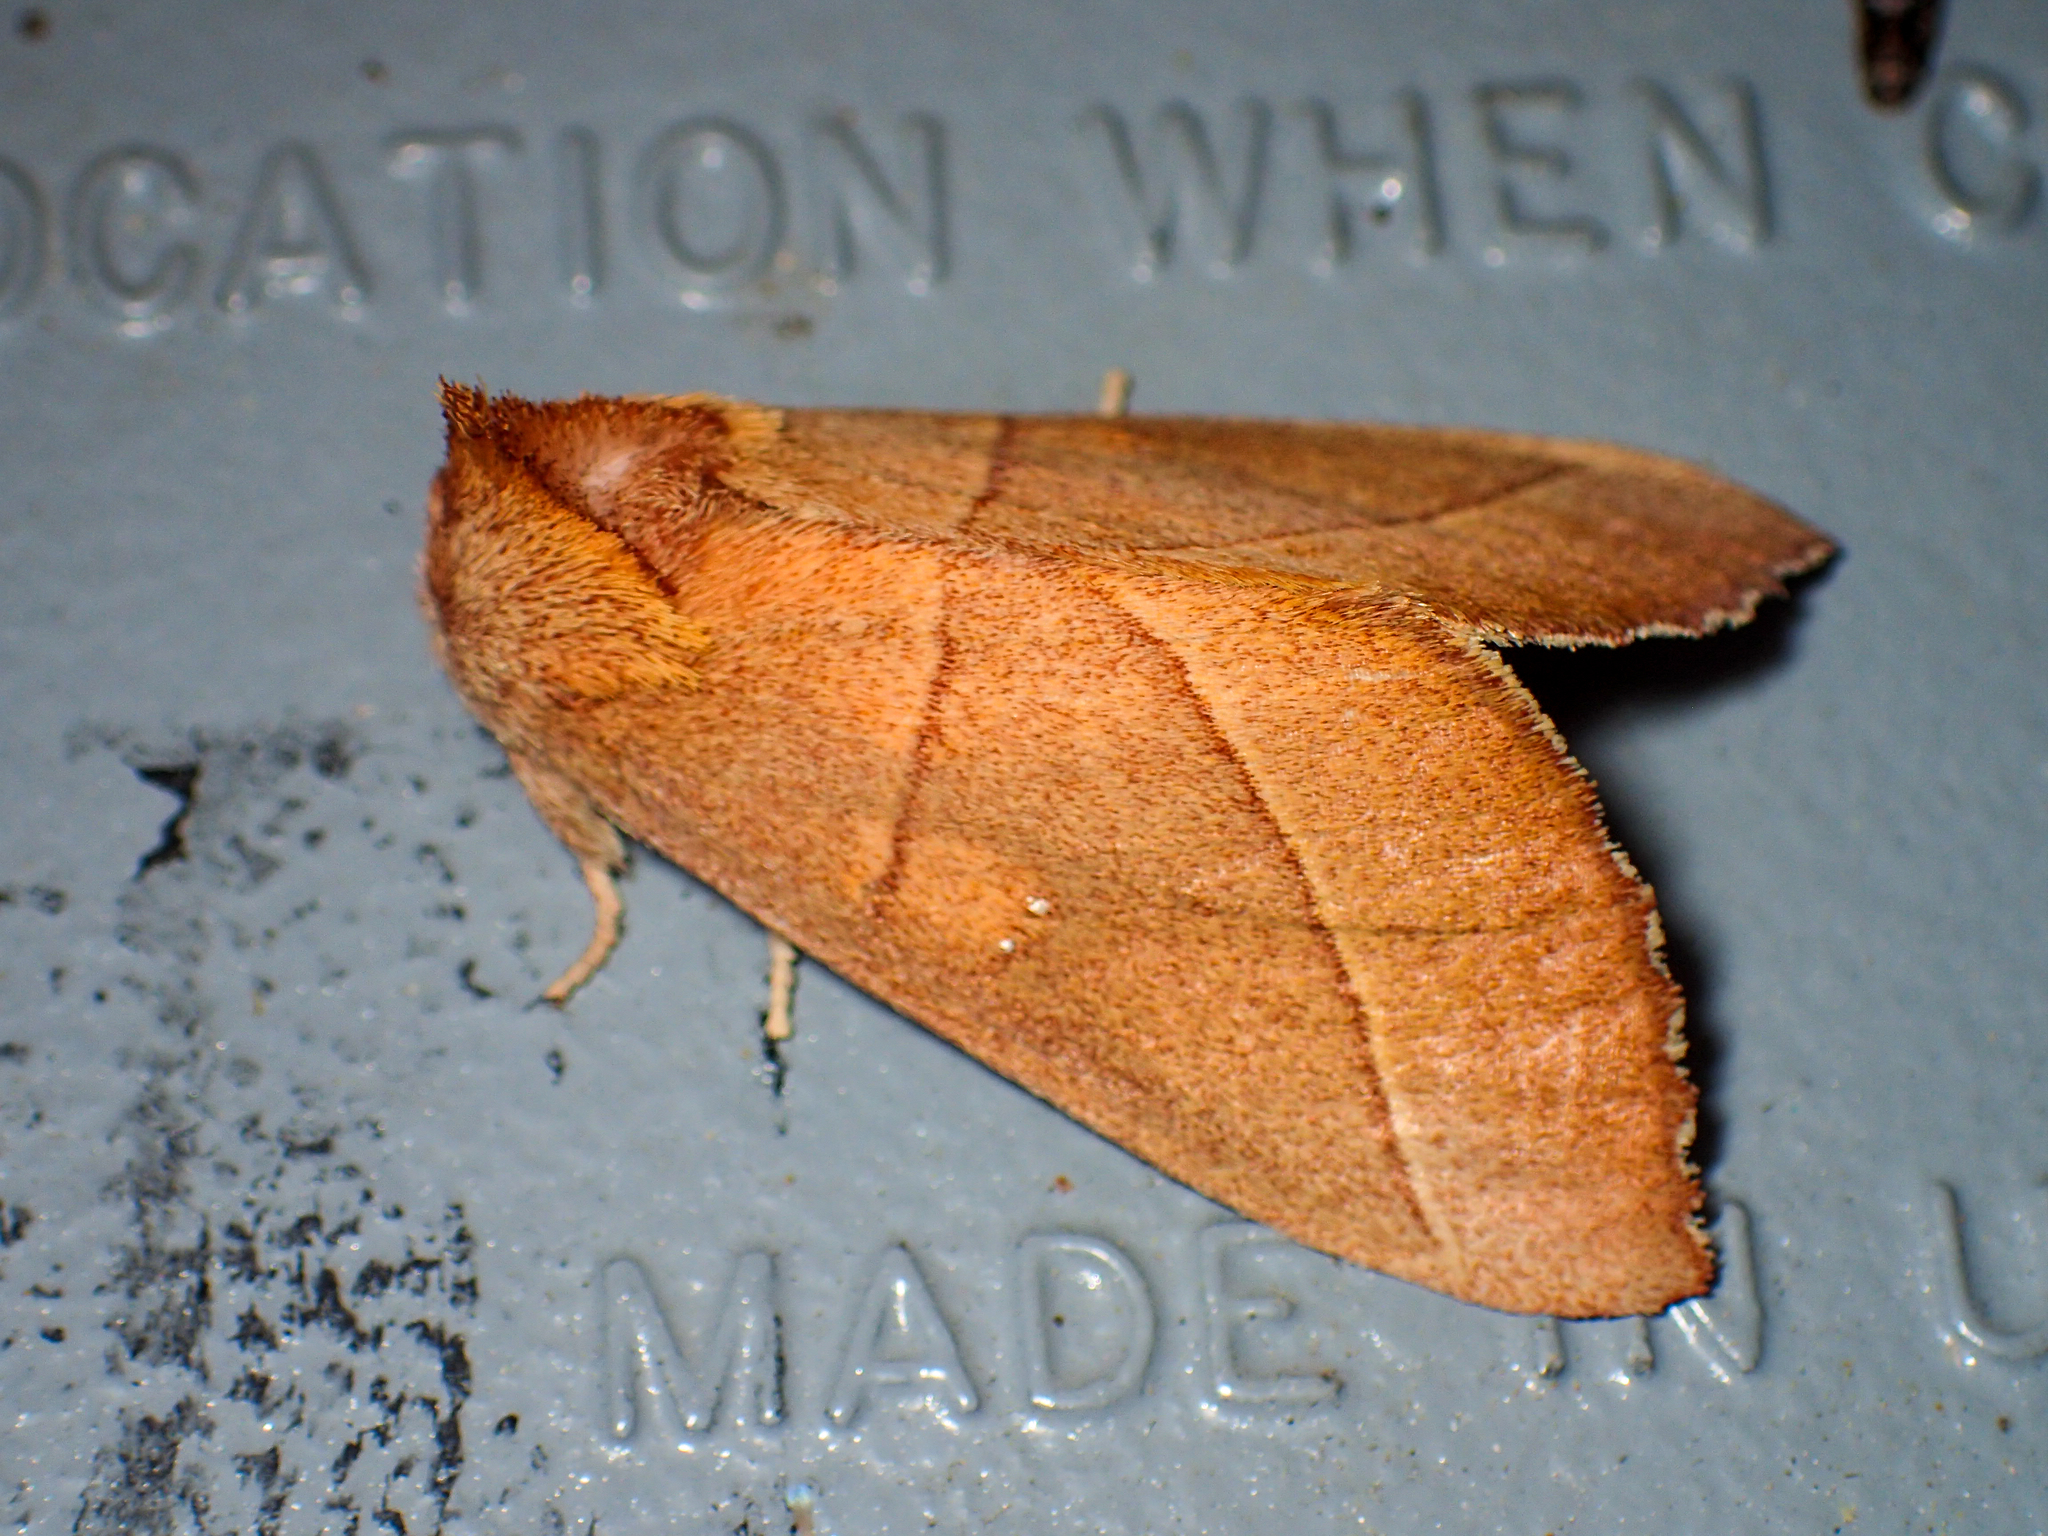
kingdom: Animalia
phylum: Arthropoda
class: Insecta
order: Lepidoptera
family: Notodontidae
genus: Nadata
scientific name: Nadata gibbosa
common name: White-dotted prominent
